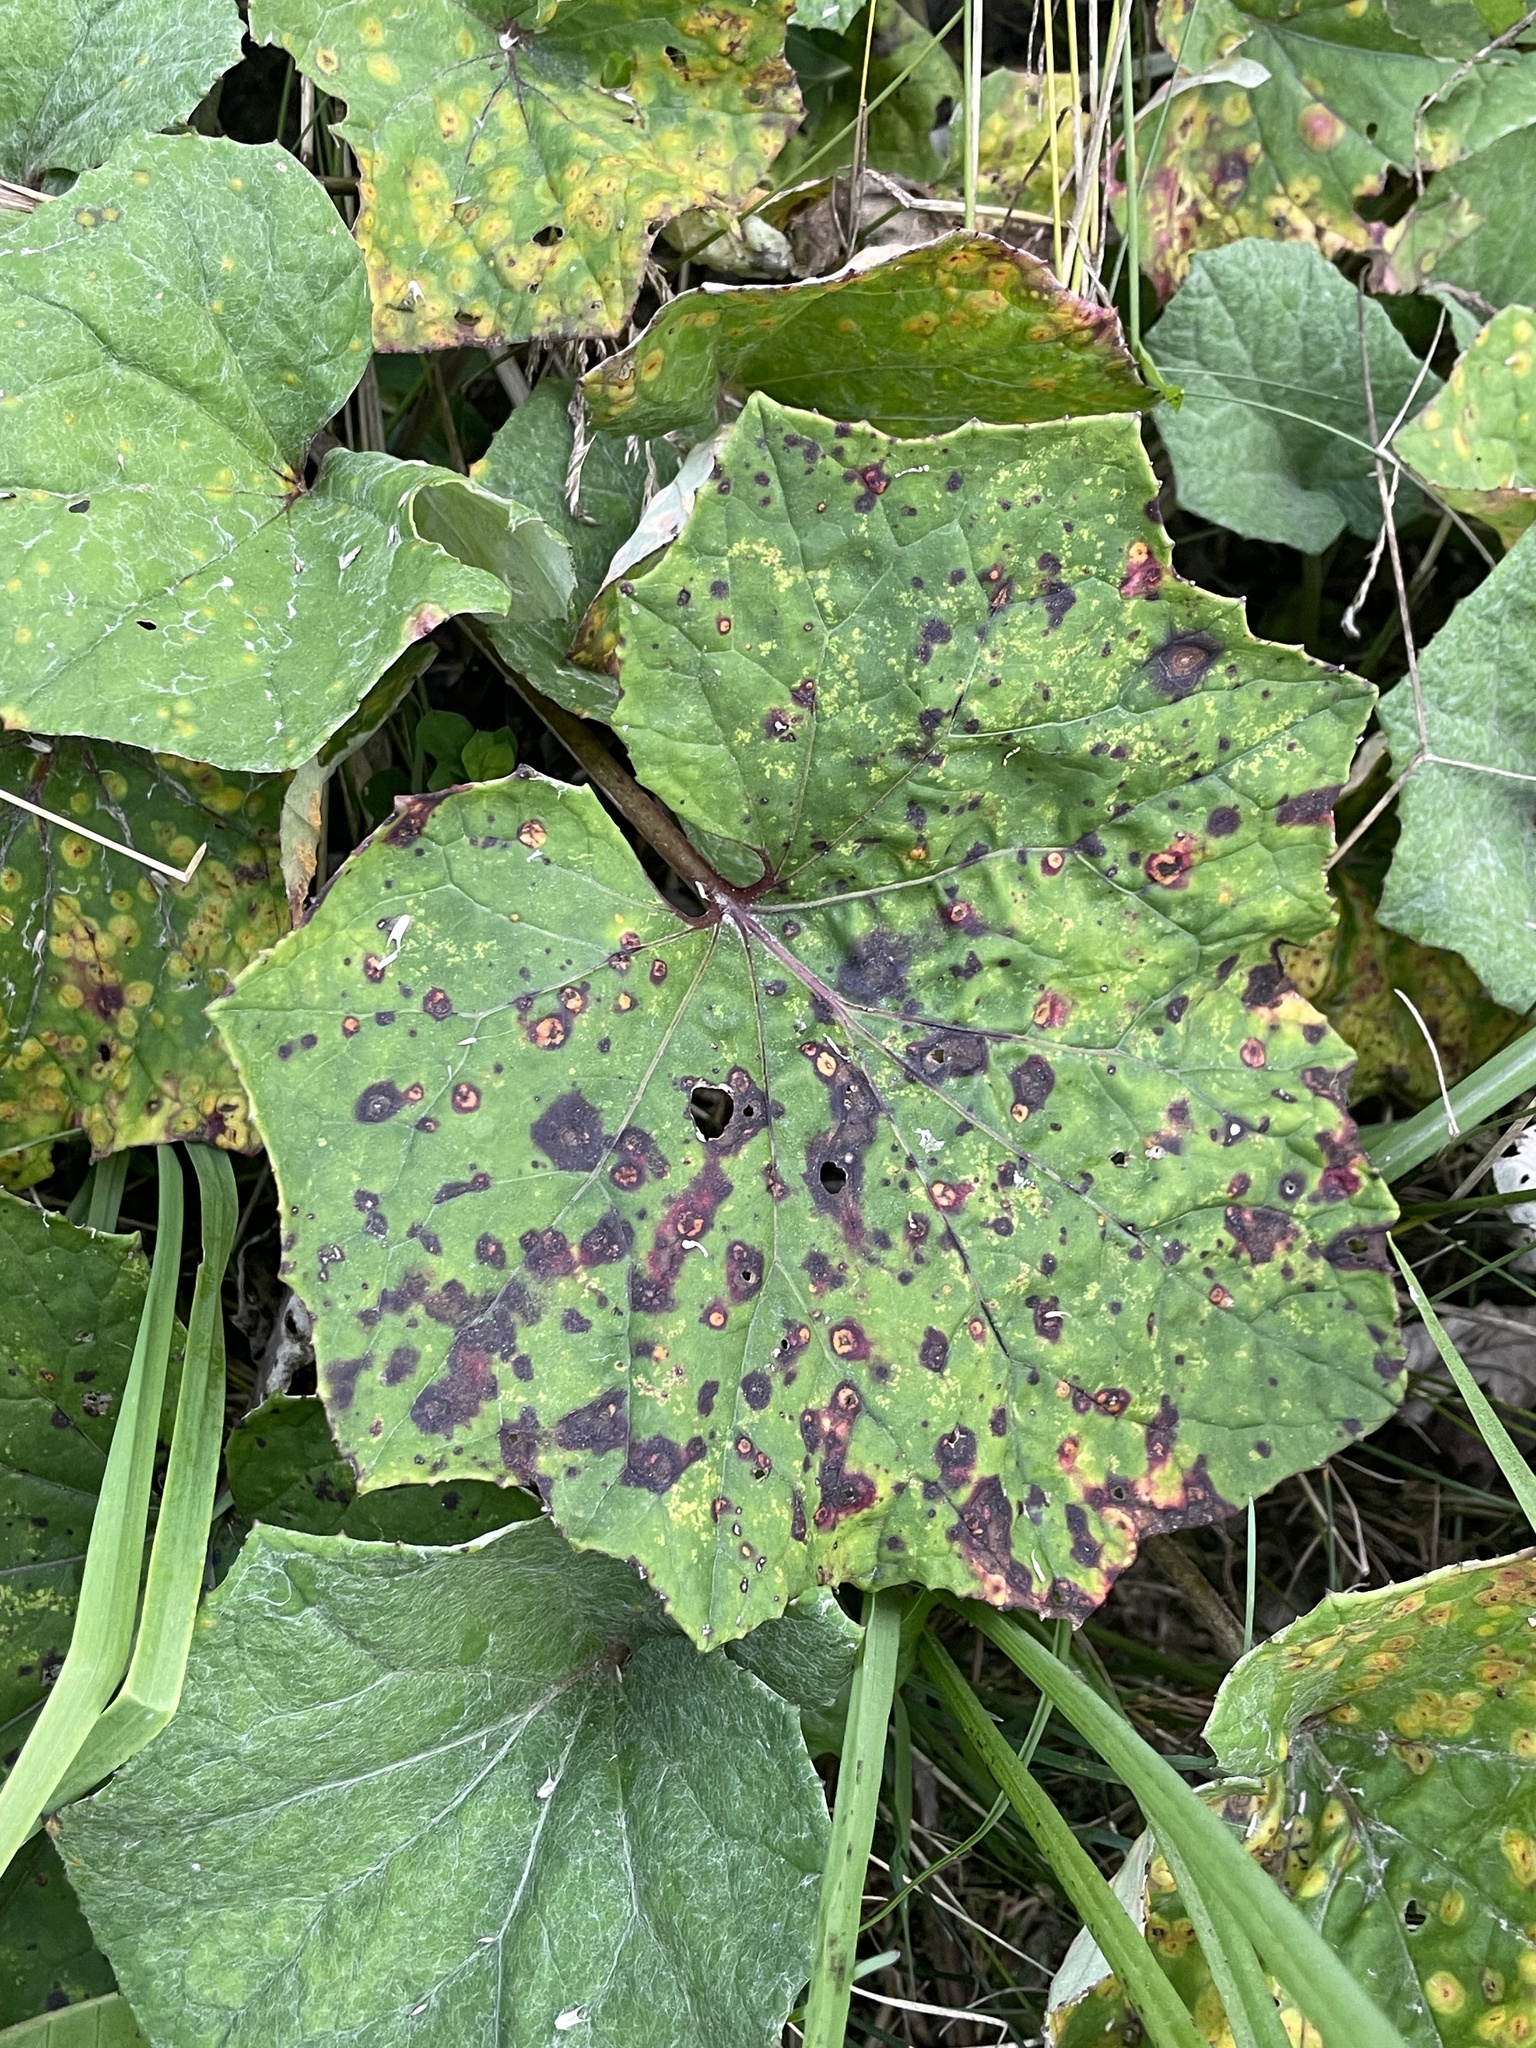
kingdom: Plantae
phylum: Tracheophyta
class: Magnoliopsida
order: Asterales
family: Asteraceae
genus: Tussilago
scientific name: Tussilago farfara
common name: Coltsfoot
